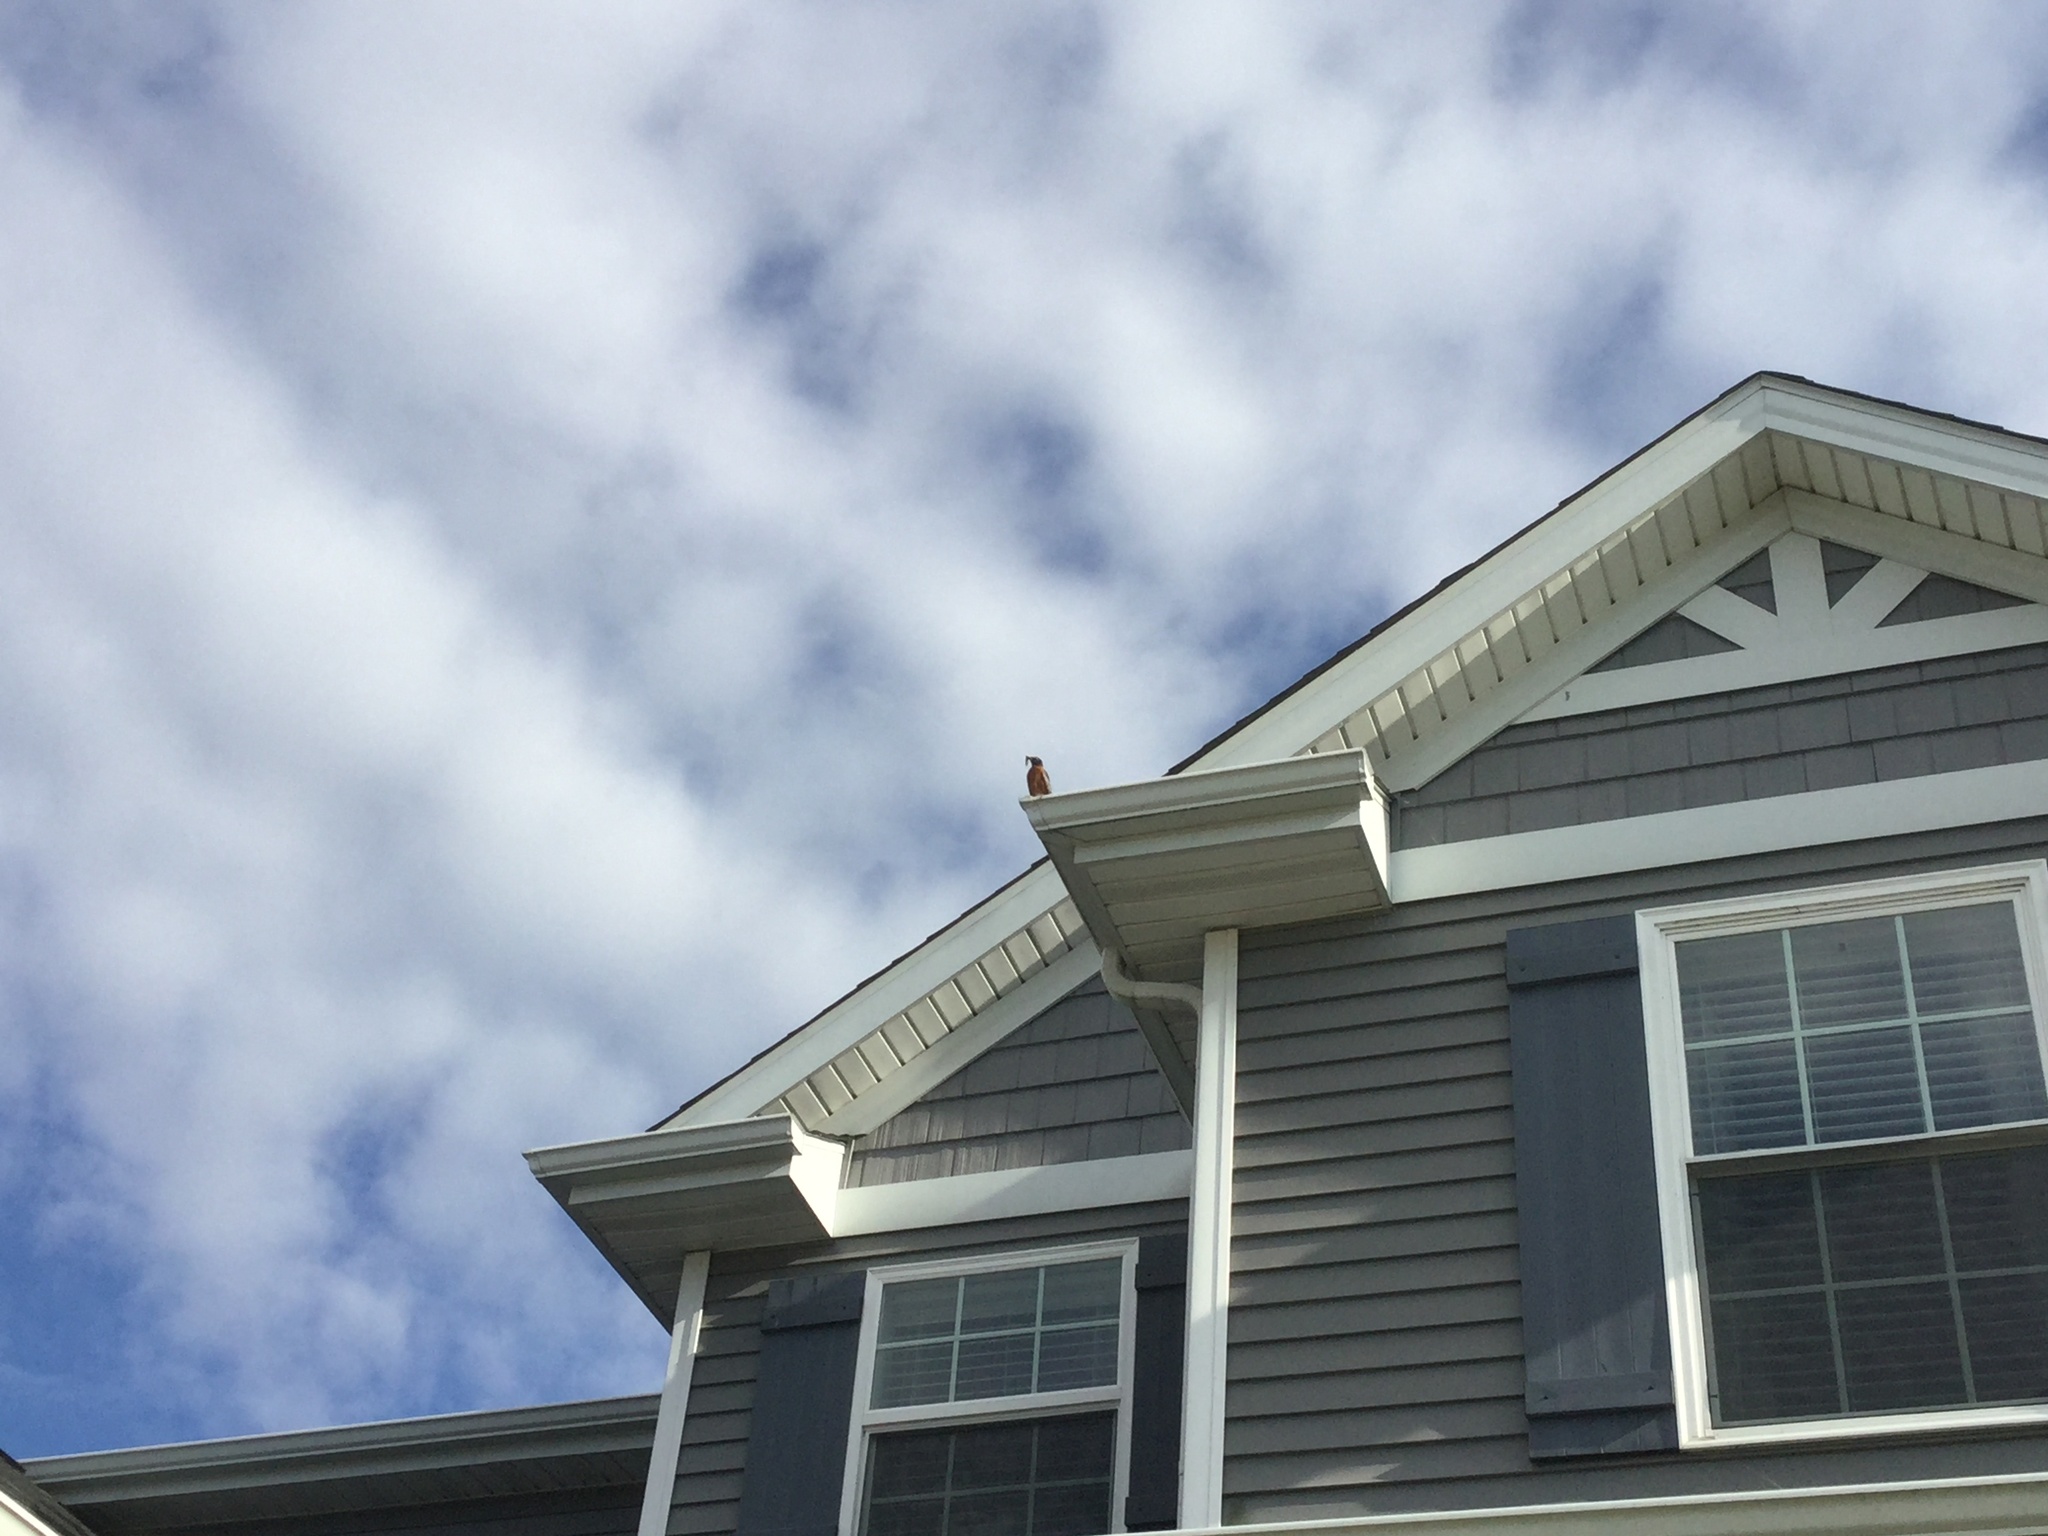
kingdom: Animalia
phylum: Chordata
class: Aves
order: Passeriformes
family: Turdidae
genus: Turdus
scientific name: Turdus migratorius
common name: American robin
